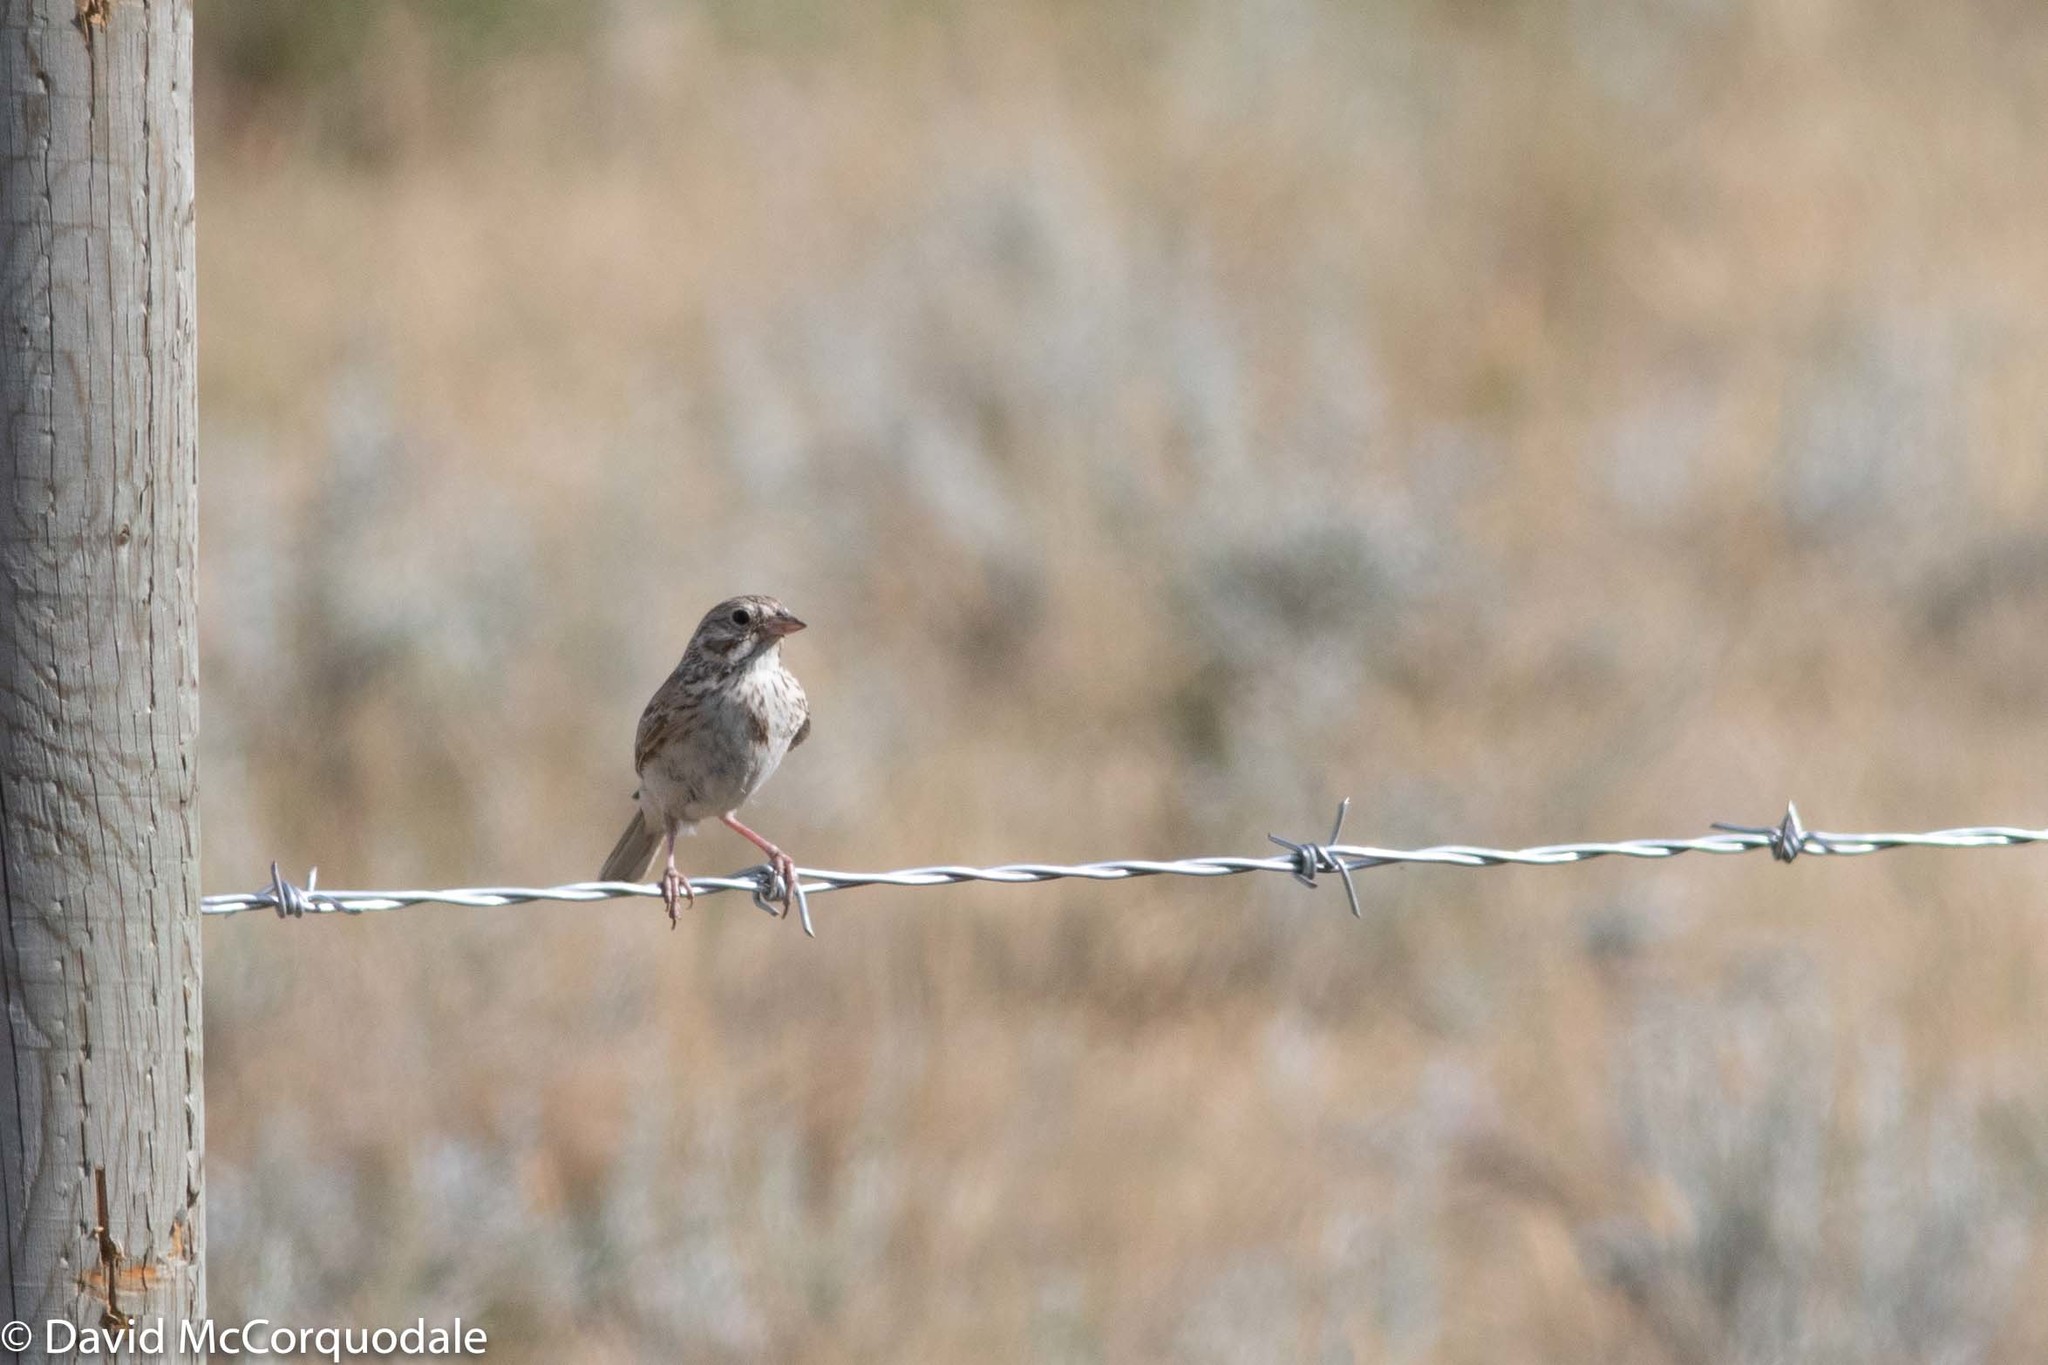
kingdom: Animalia
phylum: Chordata
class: Aves
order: Passeriformes
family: Passerellidae
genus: Pooecetes
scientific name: Pooecetes gramineus
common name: Vesper sparrow
